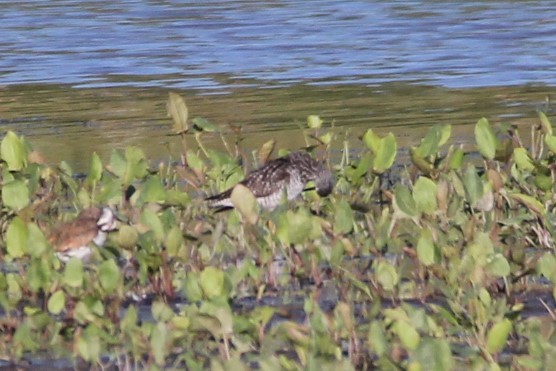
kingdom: Animalia
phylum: Chordata
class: Aves
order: Charadriiformes
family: Scolopacidae
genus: Tringa
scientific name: Tringa melanoleuca
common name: Greater yellowlegs
